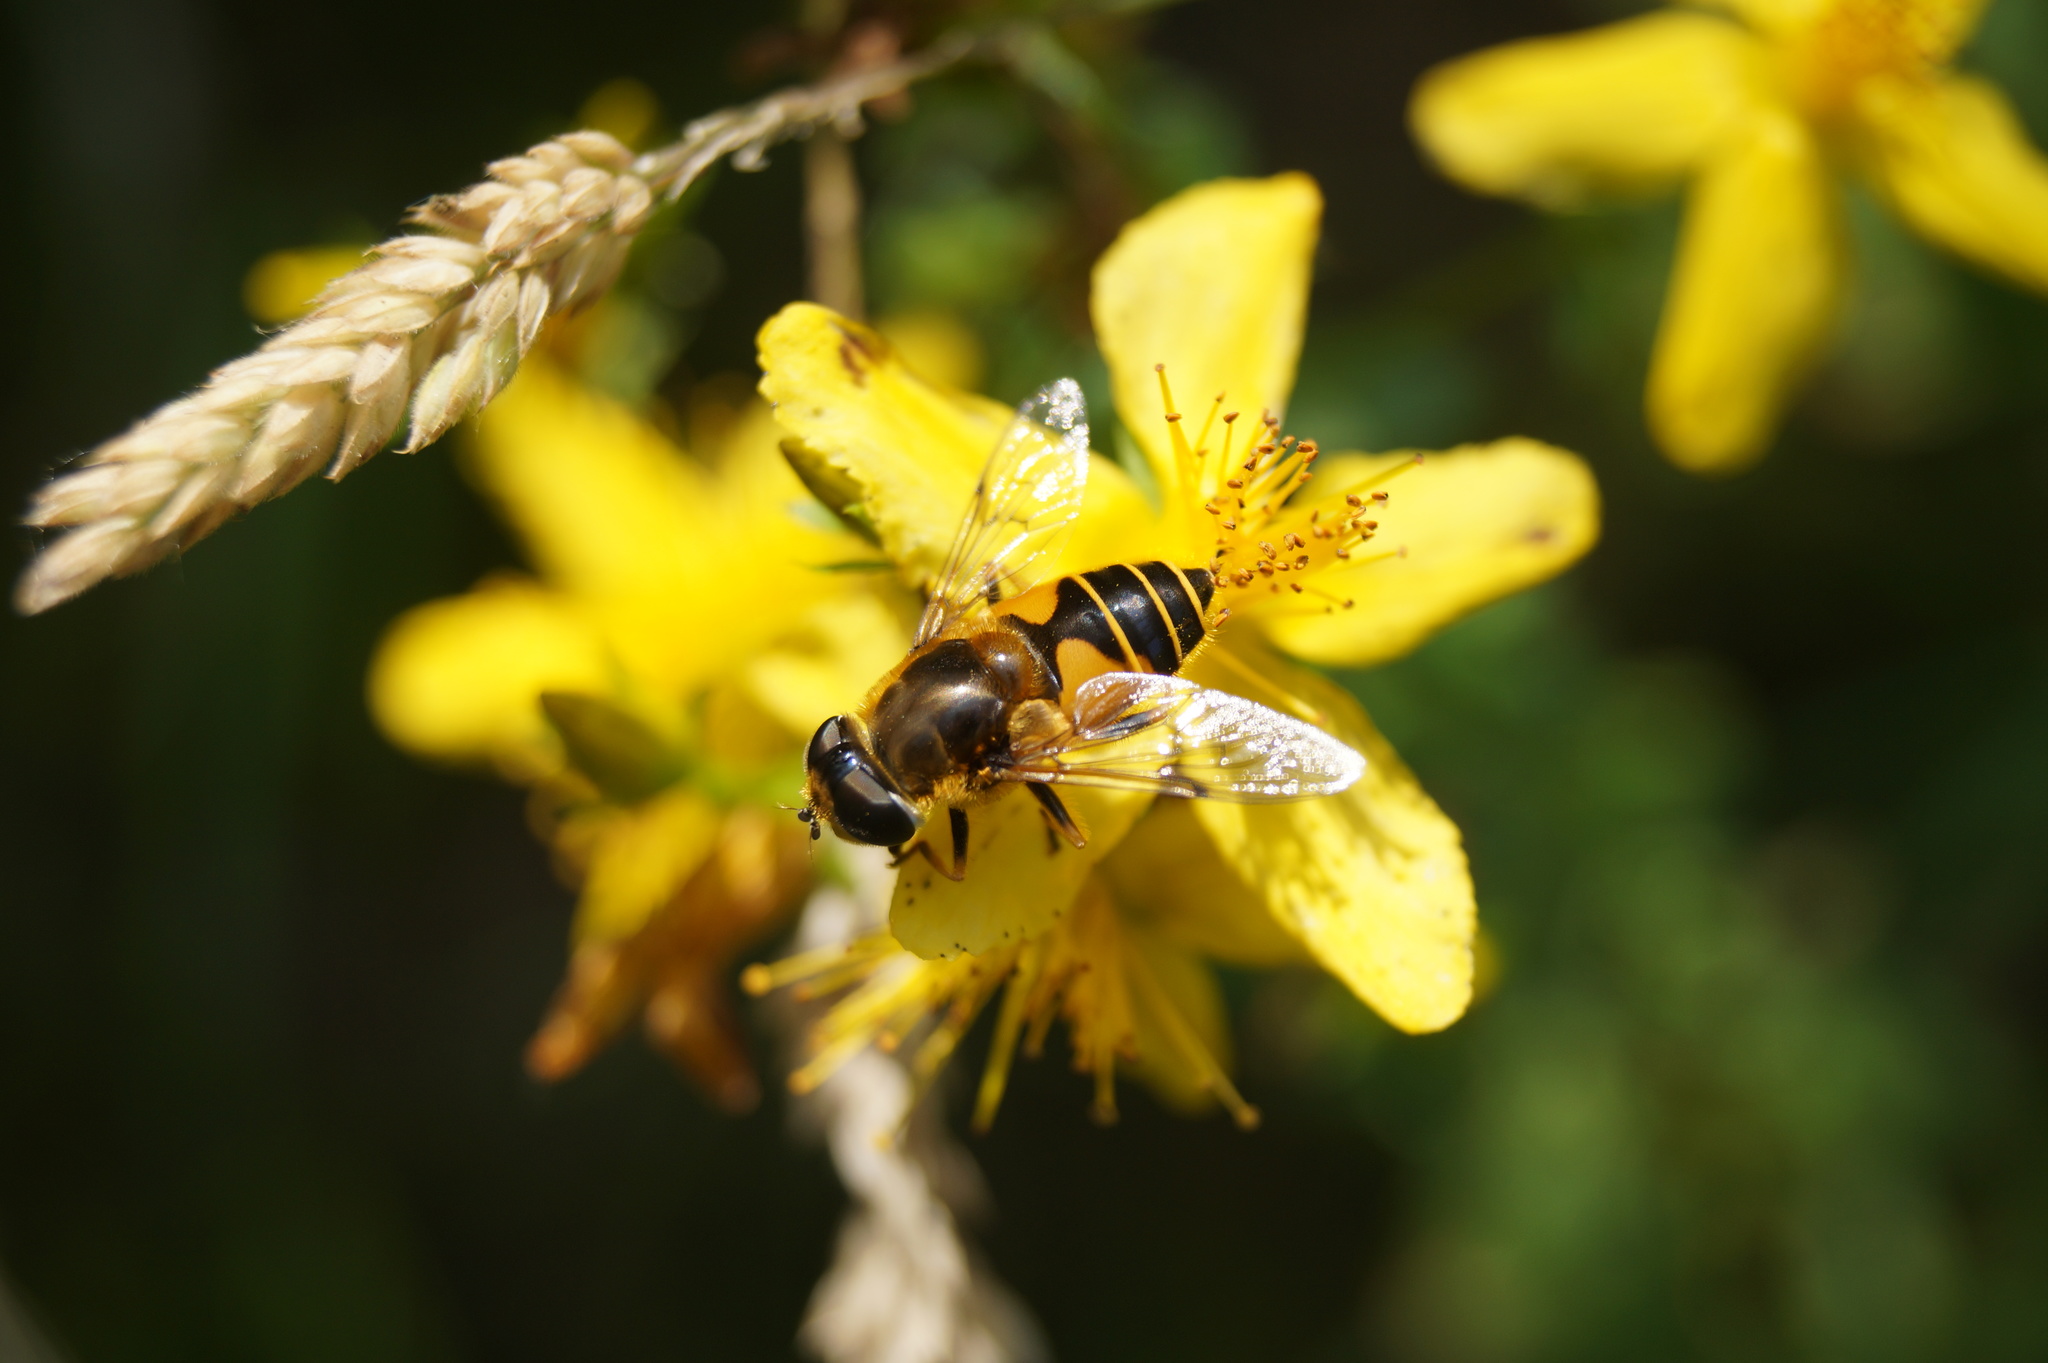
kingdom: Animalia
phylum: Arthropoda
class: Insecta
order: Diptera
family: Syrphidae
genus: Cheilosia
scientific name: Cheilosia morio
